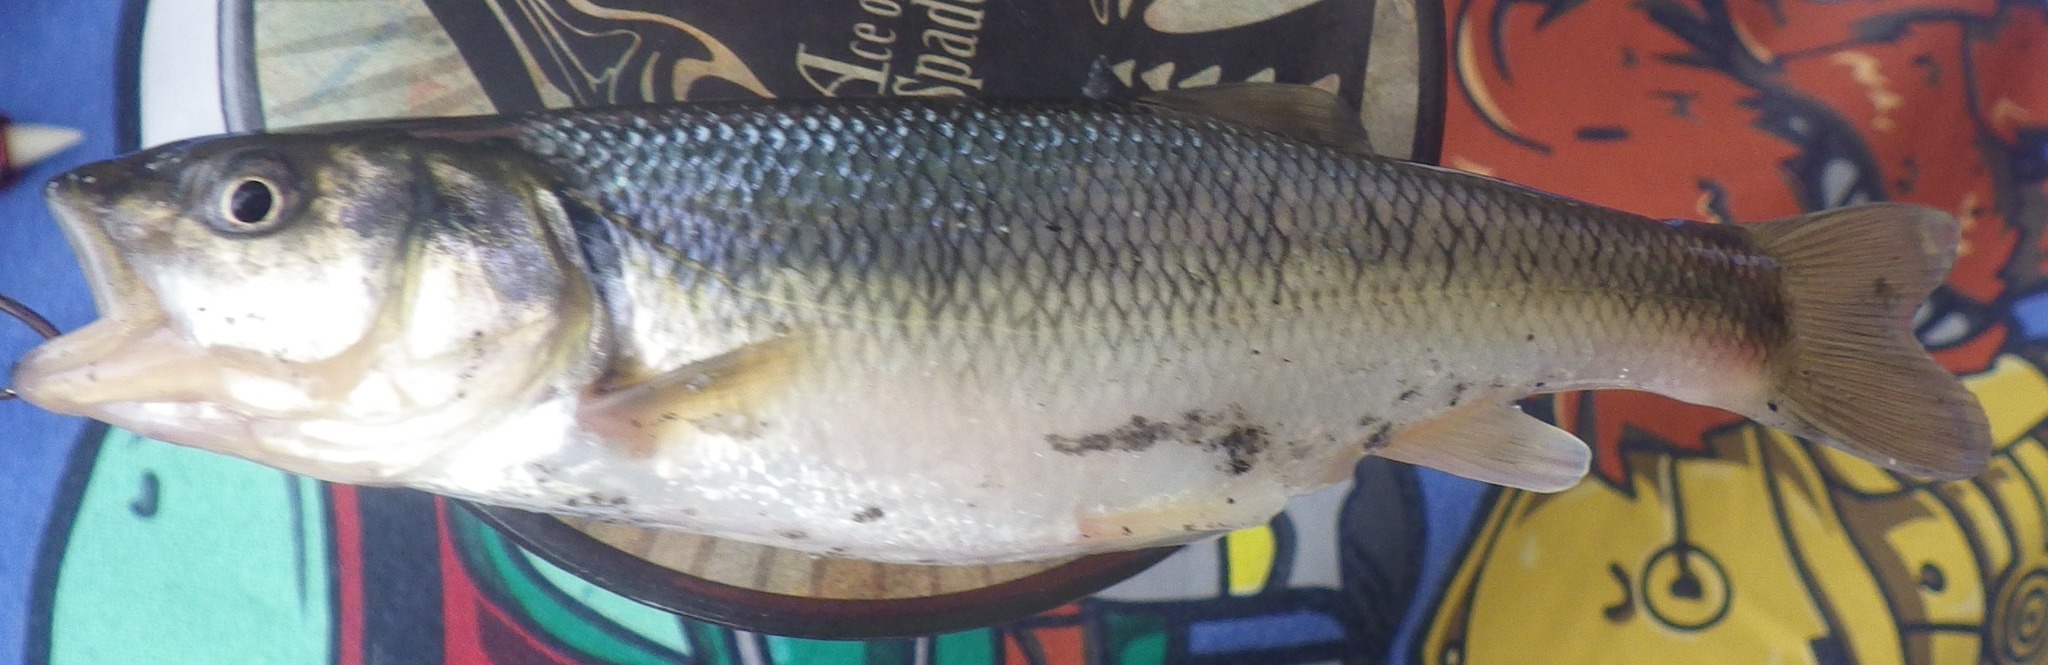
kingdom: Animalia
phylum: Chordata
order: Cypriniformes
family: Cyprinidae
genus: Semotilus
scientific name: Semotilus atromaculatus
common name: Creek chub
